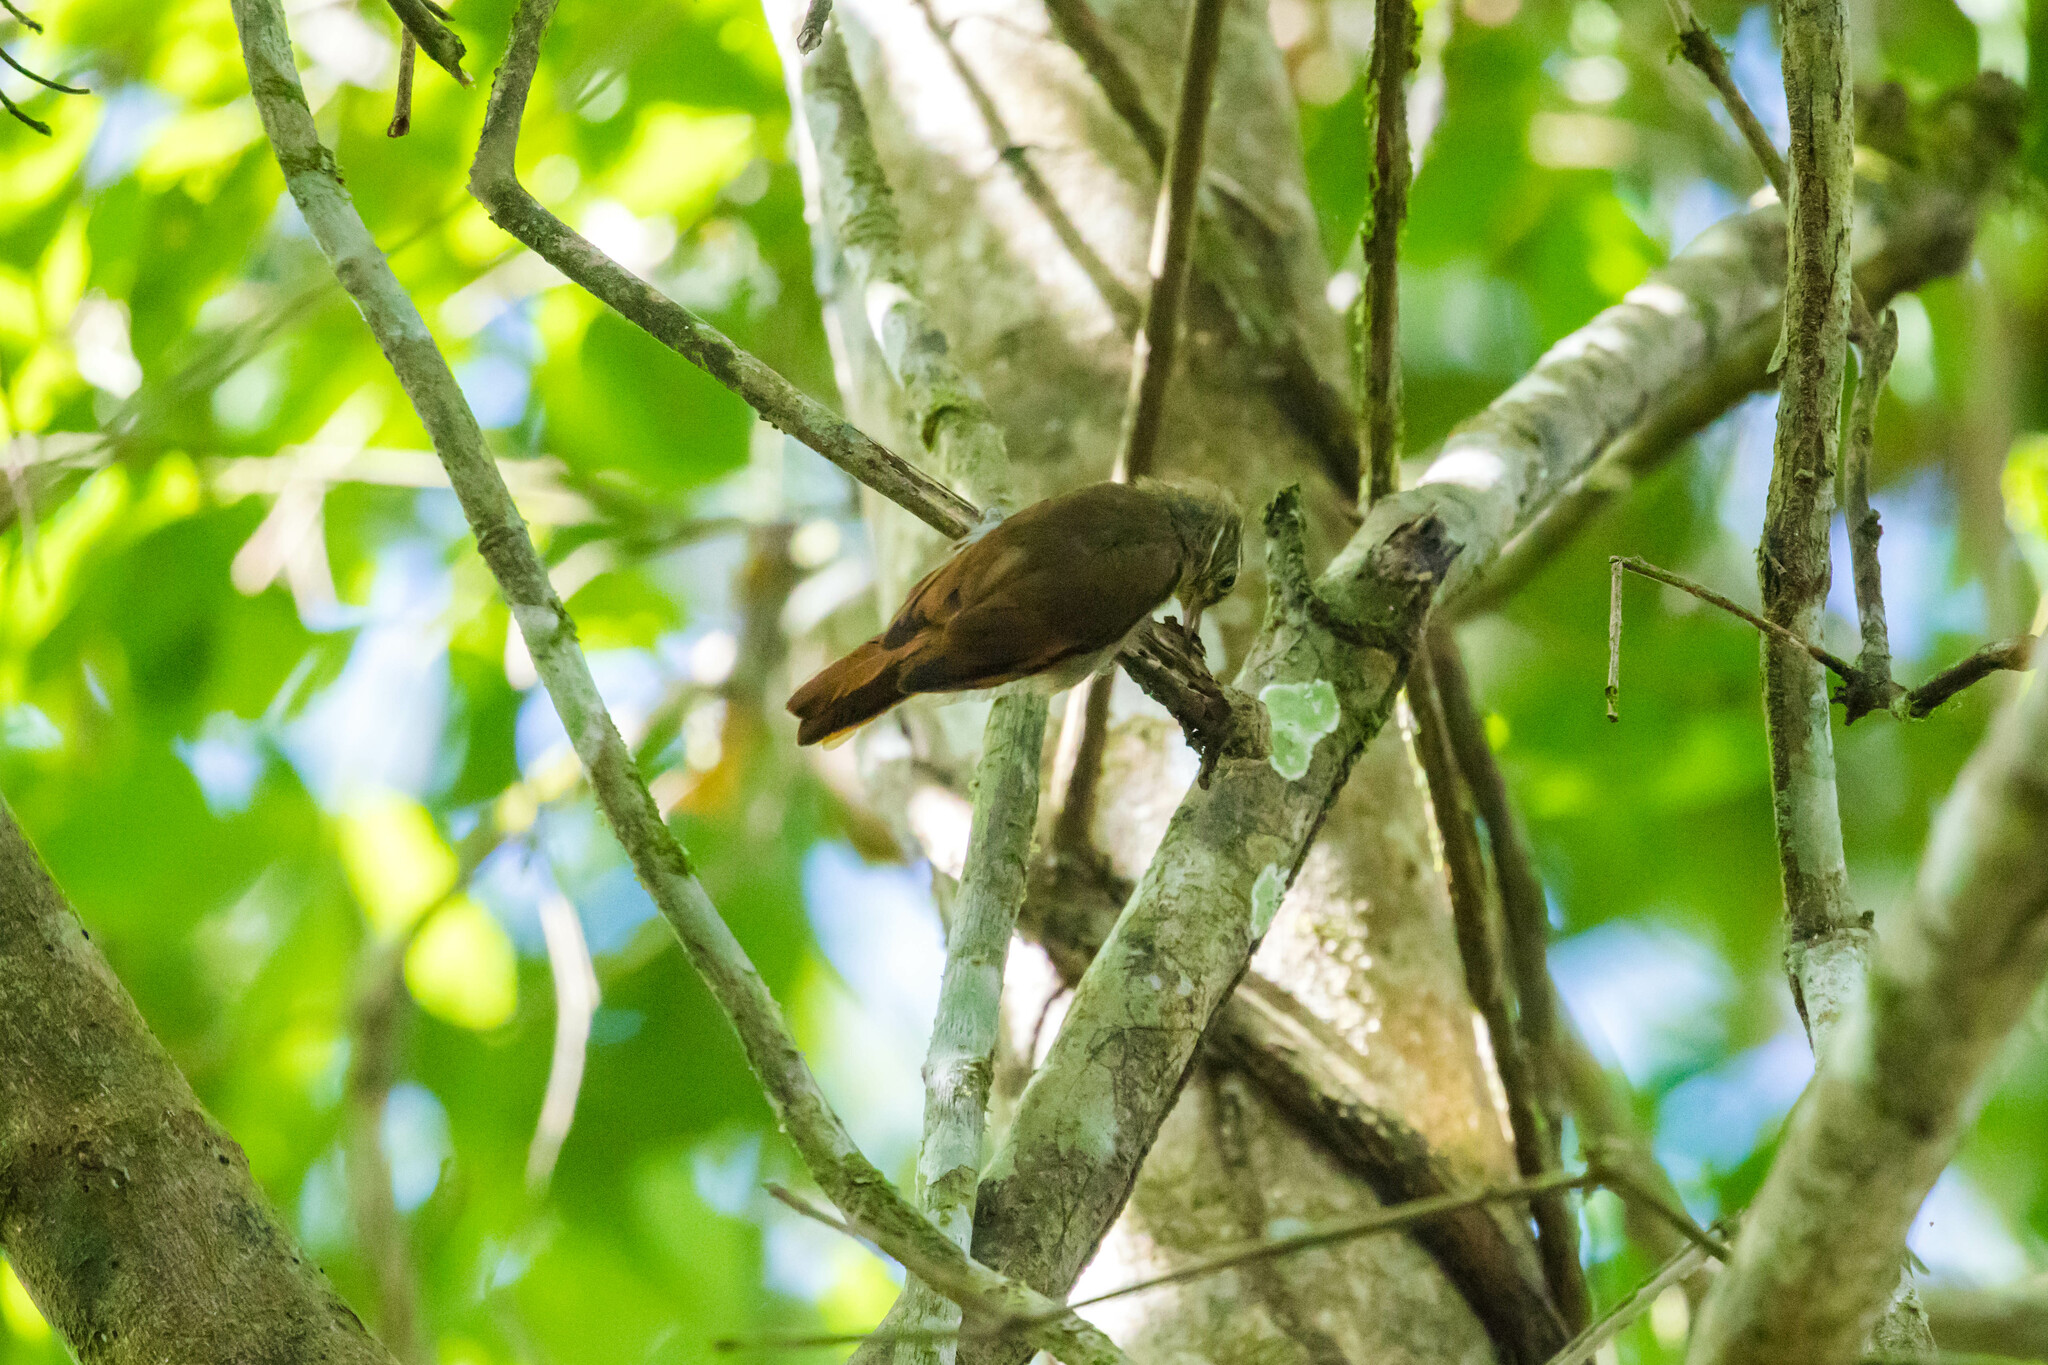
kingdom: Animalia
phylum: Chordata
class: Aves
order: Passeriformes
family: Furnariidae
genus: Xenops
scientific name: Xenops minutus
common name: Plain xenops
